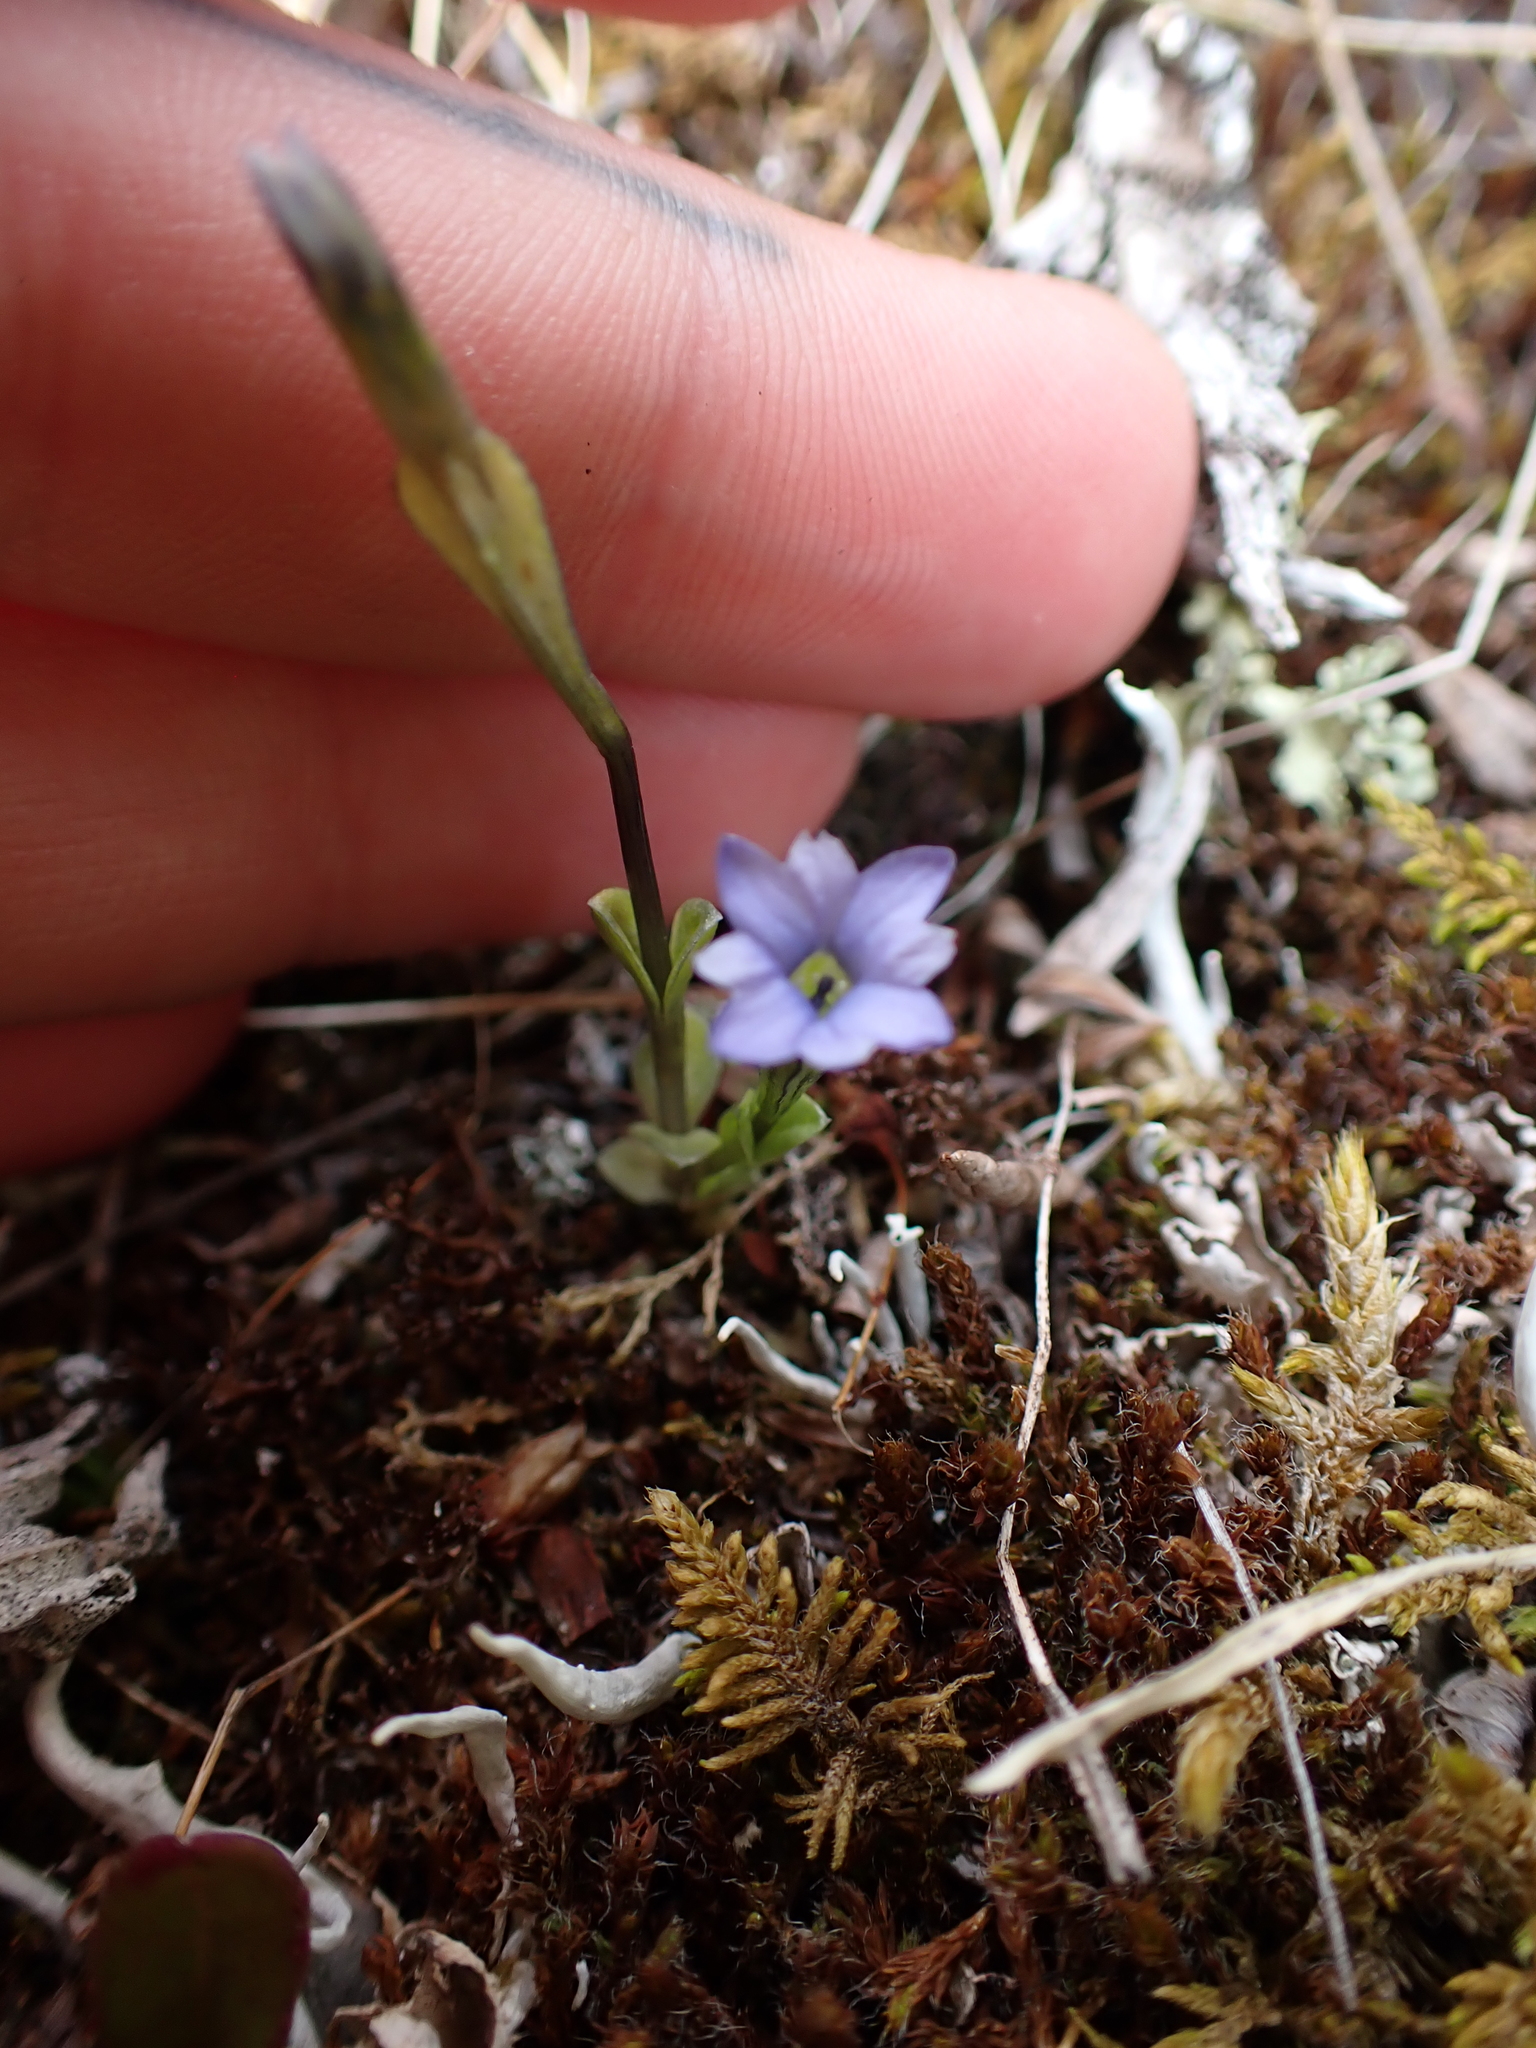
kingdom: Plantae
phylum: Tracheophyta
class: Magnoliopsida
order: Gentianales
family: Gentianaceae
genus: Gentiana
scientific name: Gentiana prostrata
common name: Moss gentian
